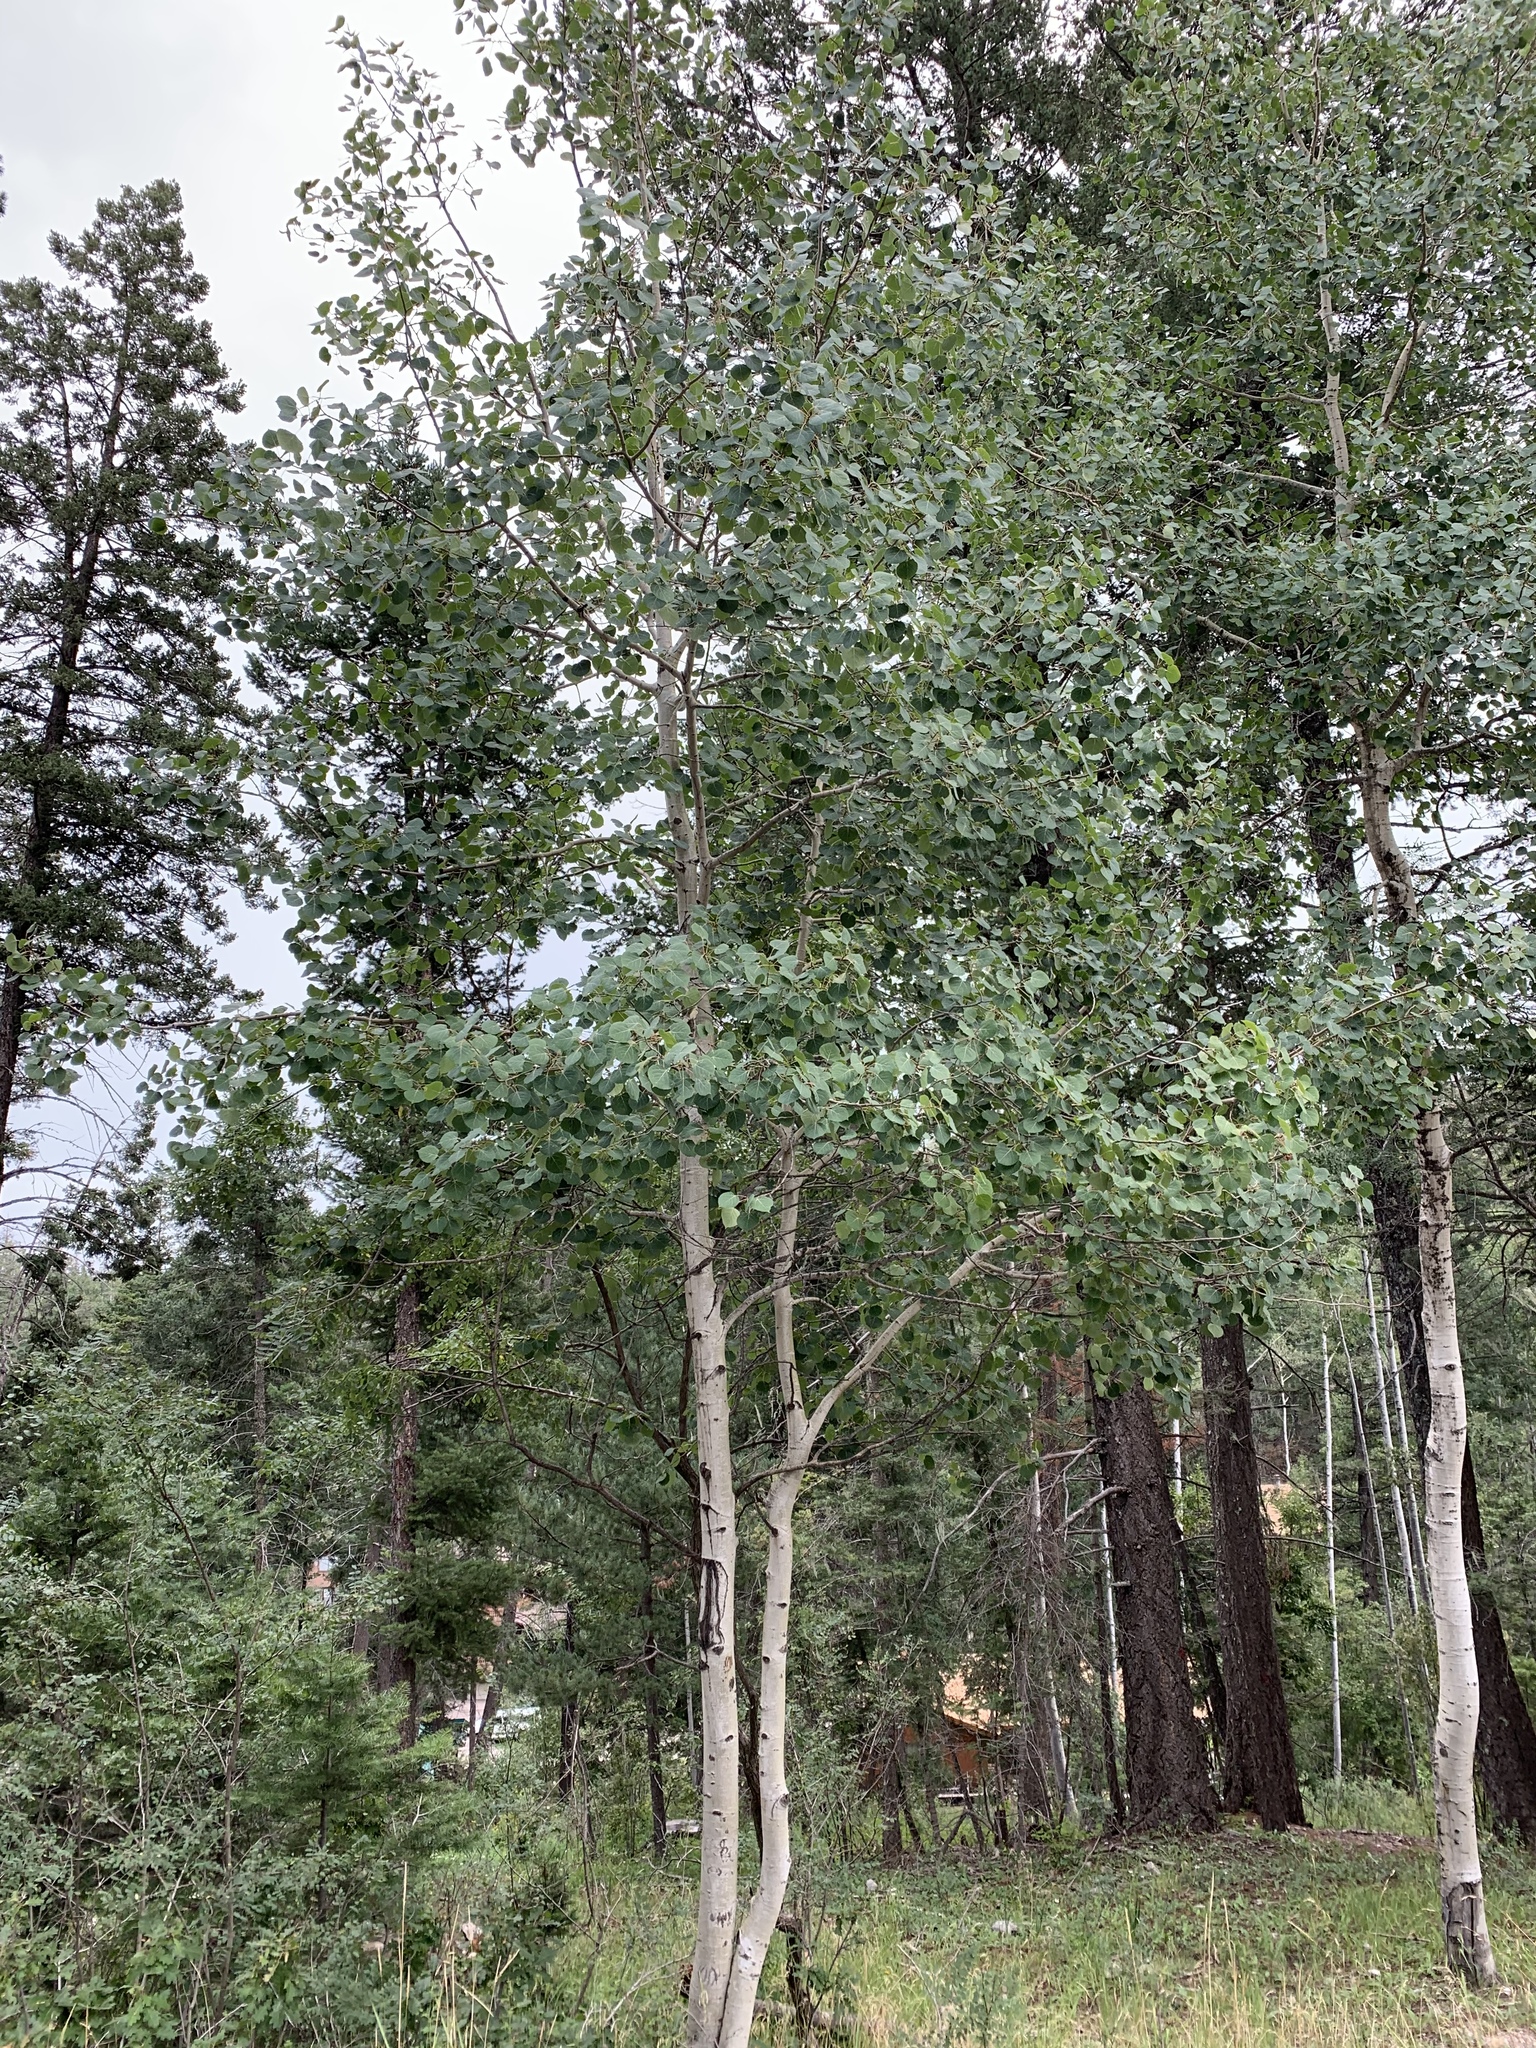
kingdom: Plantae
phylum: Tracheophyta
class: Magnoliopsida
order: Malpighiales
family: Salicaceae
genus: Populus
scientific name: Populus tremuloides
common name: Quaking aspen
